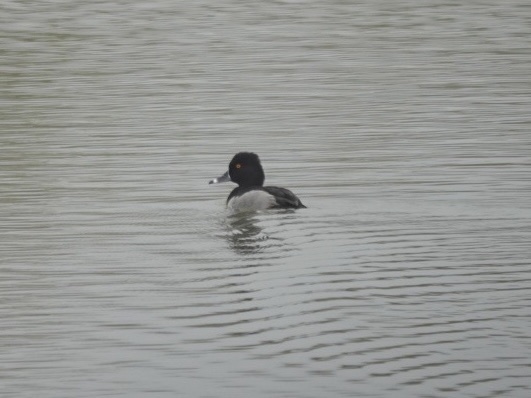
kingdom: Animalia
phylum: Chordata
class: Aves
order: Anseriformes
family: Anatidae
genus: Aythya
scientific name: Aythya collaris
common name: Ring-necked duck
